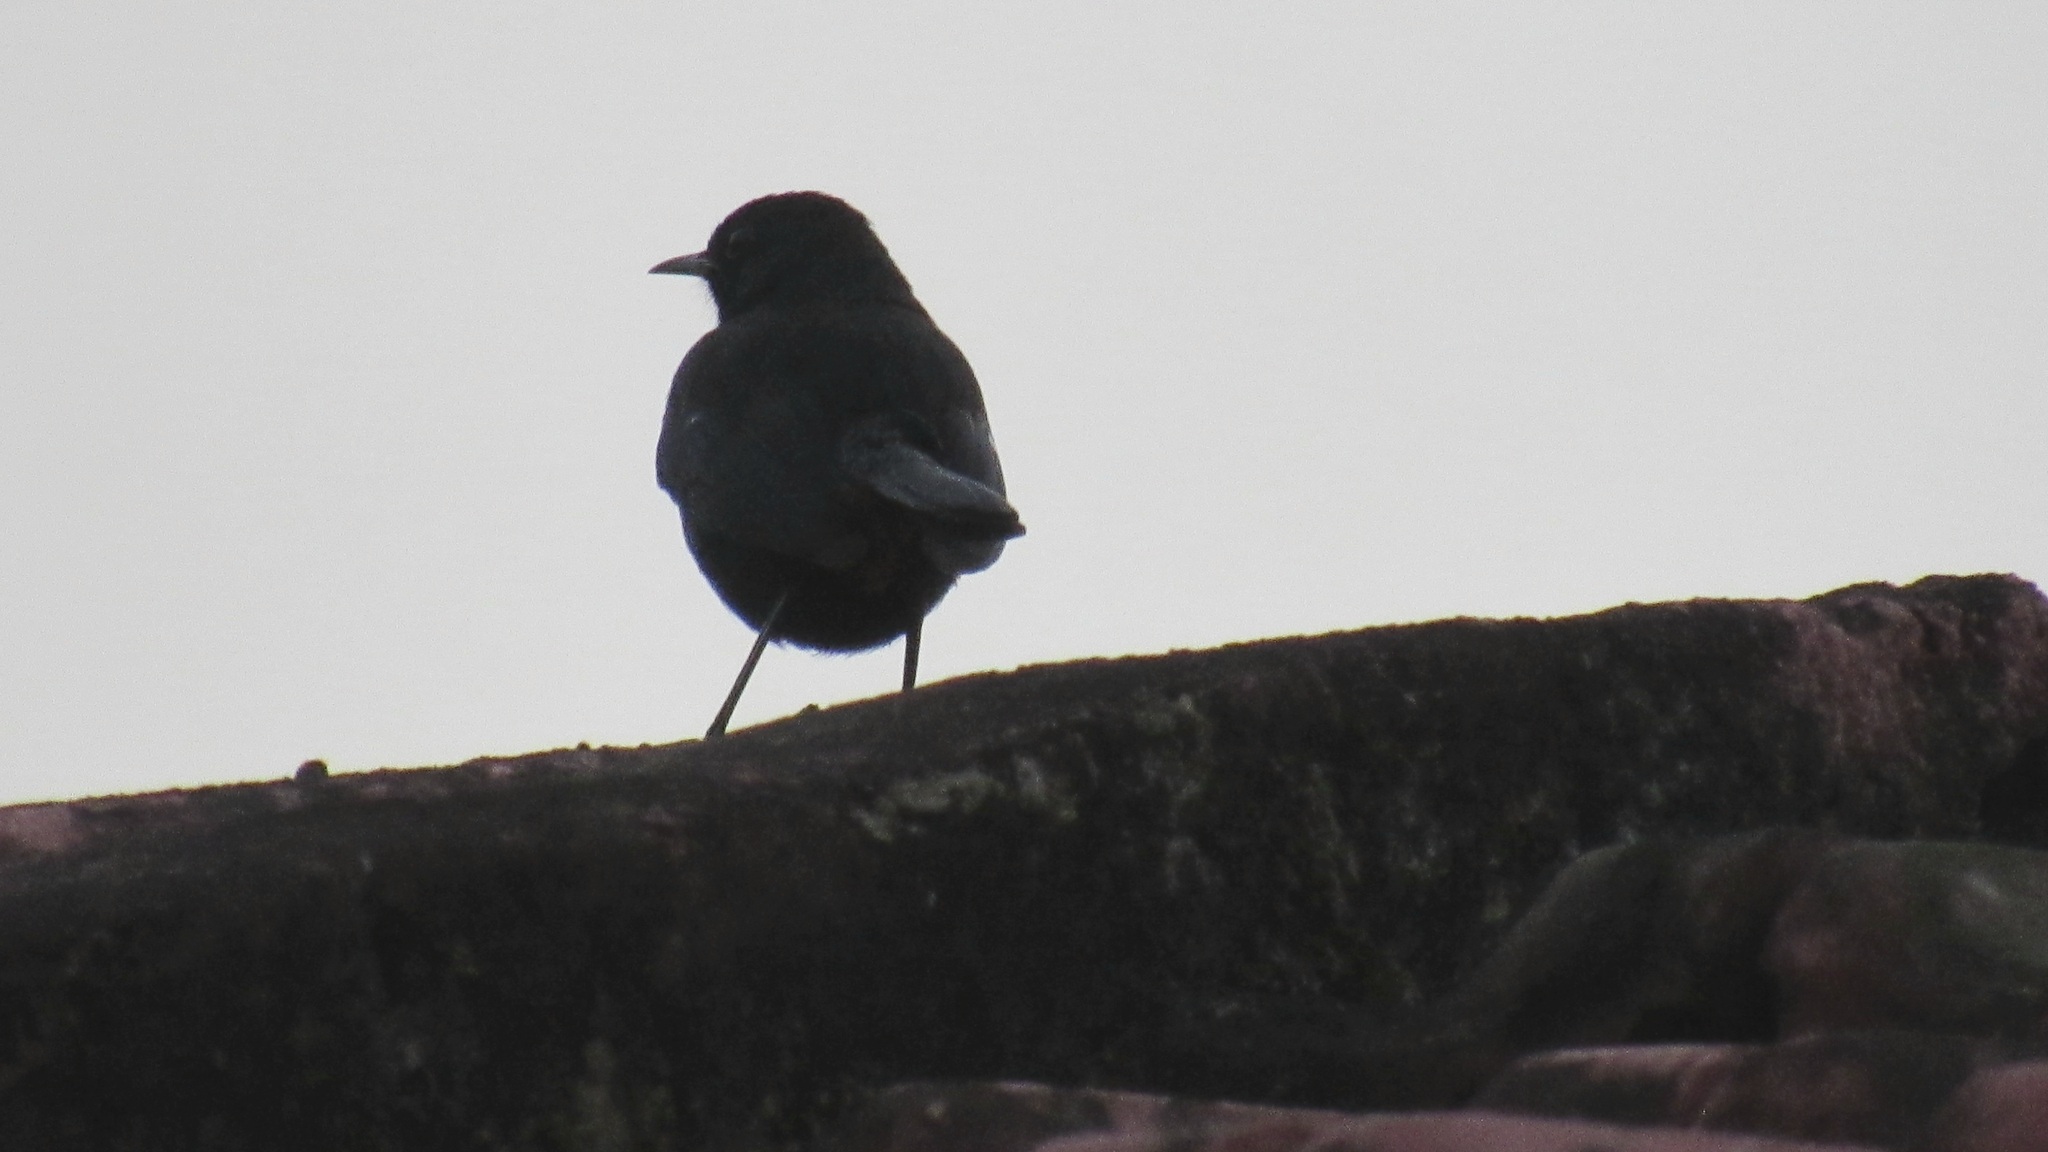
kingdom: Animalia
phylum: Chordata
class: Aves
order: Passeriformes
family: Muscicapidae
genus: Saxicoloides
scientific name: Saxicoloides fulicatus
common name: Indian robin
